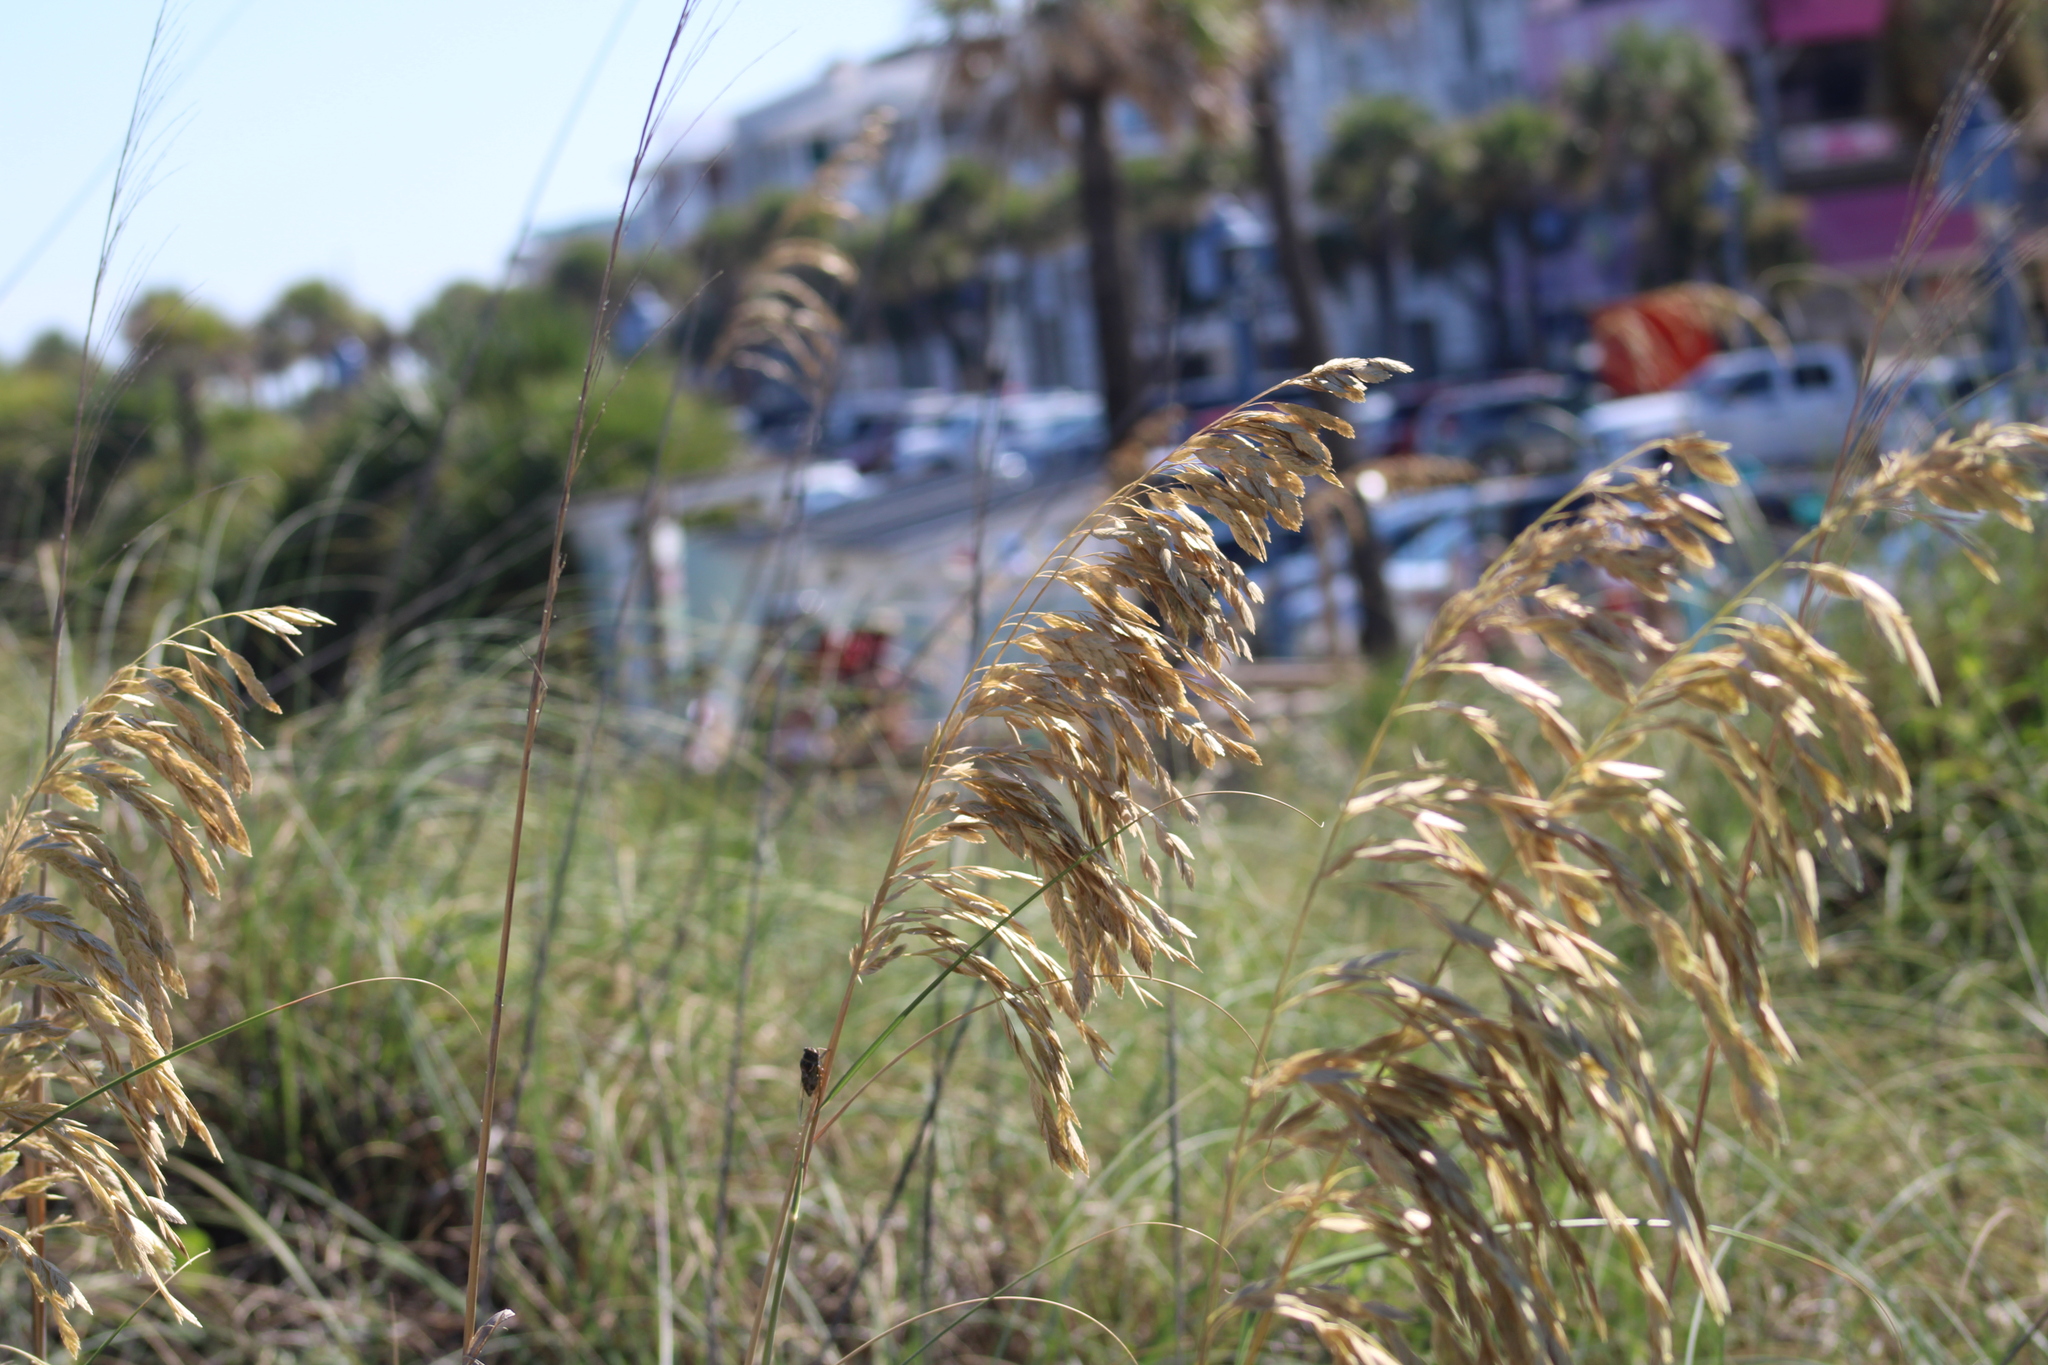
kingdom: Plantae
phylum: Tracheophyta
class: Liliopsida
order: Poales
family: Poaceae
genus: Uniola
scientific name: Uniola paniculata
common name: Seaside-oats
